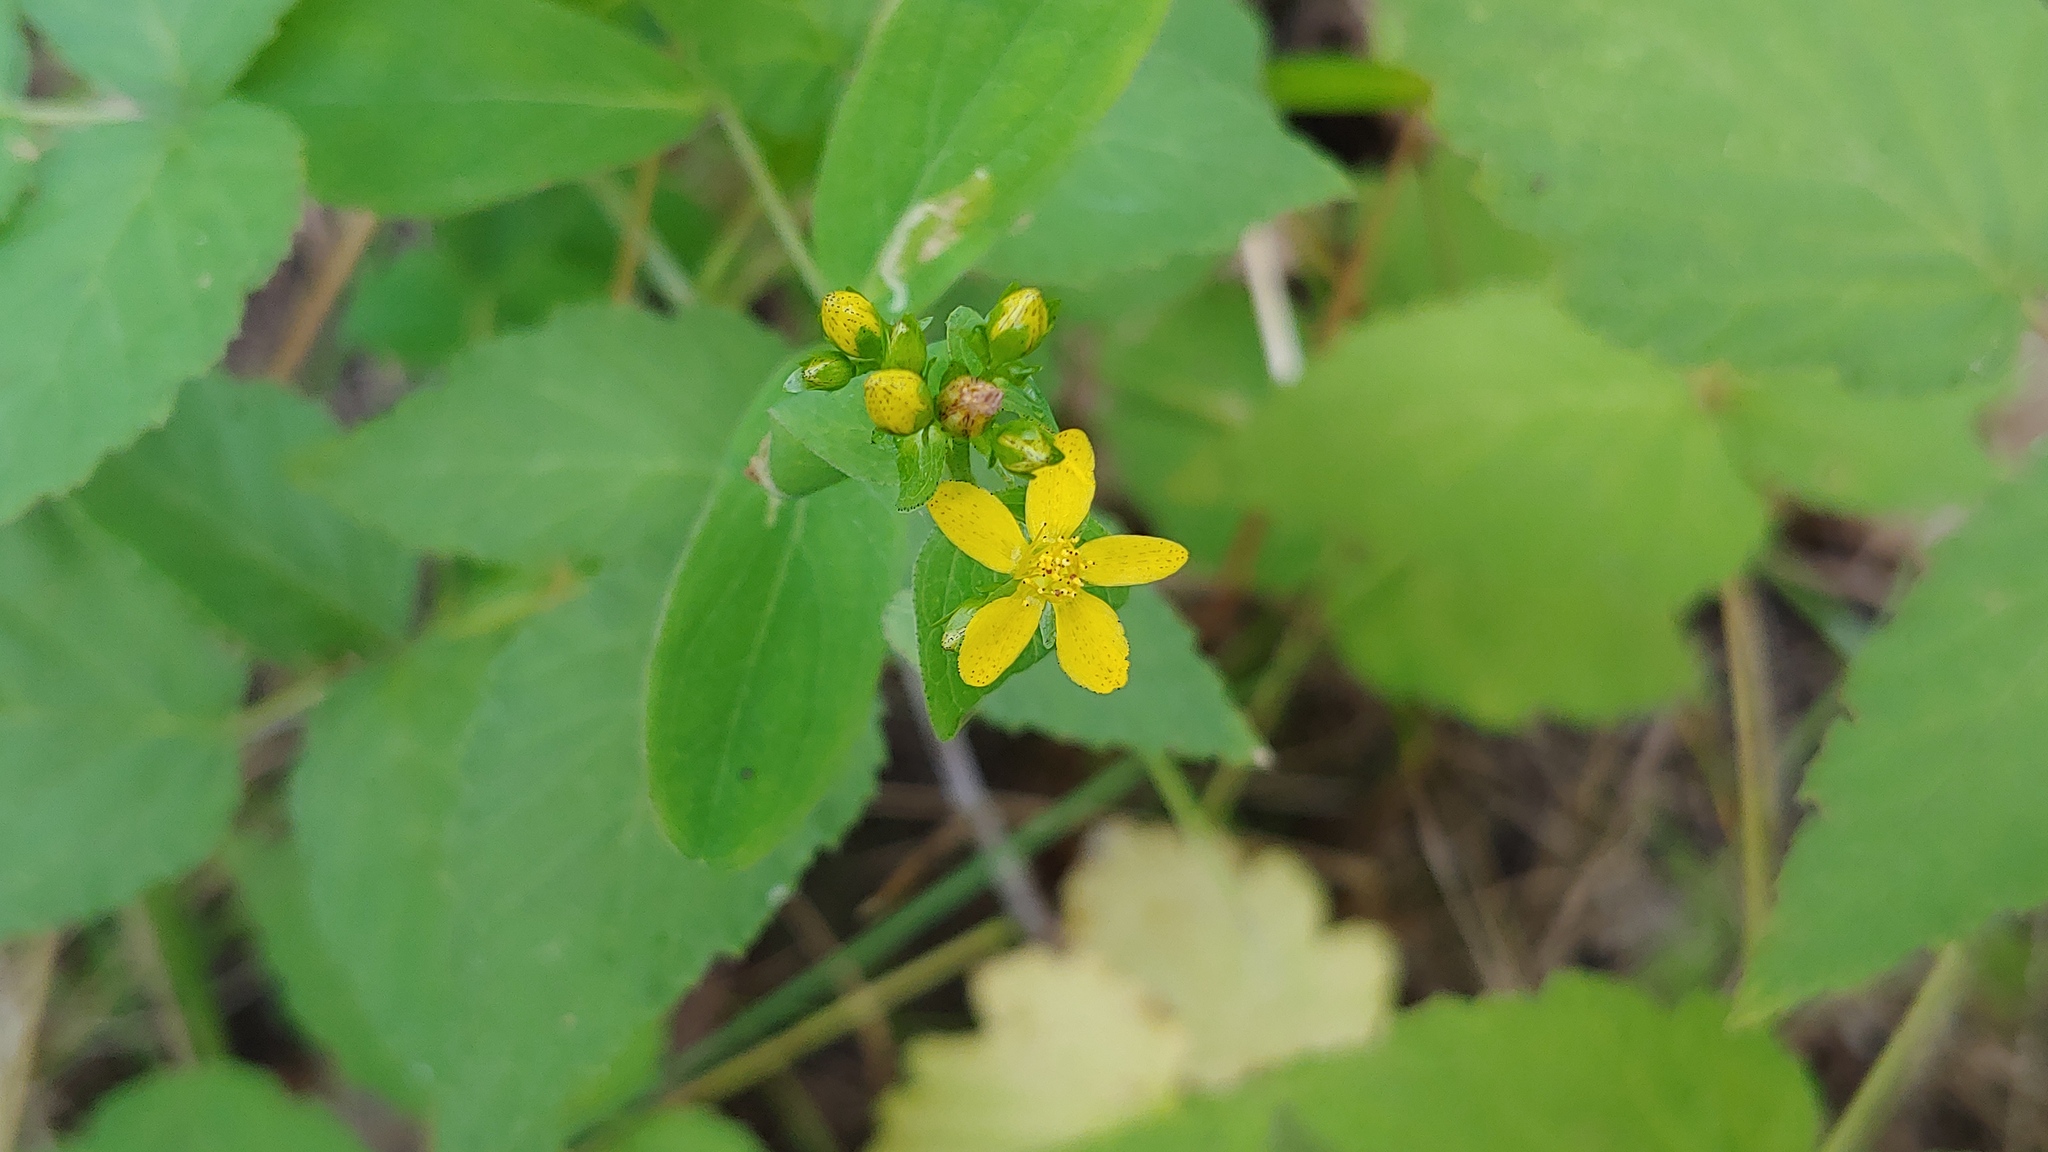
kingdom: Plantae
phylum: Tracheophyta
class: Magnoliopsida
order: Malpighiales
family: Hypericaceae
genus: Hypericum
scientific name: Hypericum punctatum
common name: Spotted st. john's-wort
